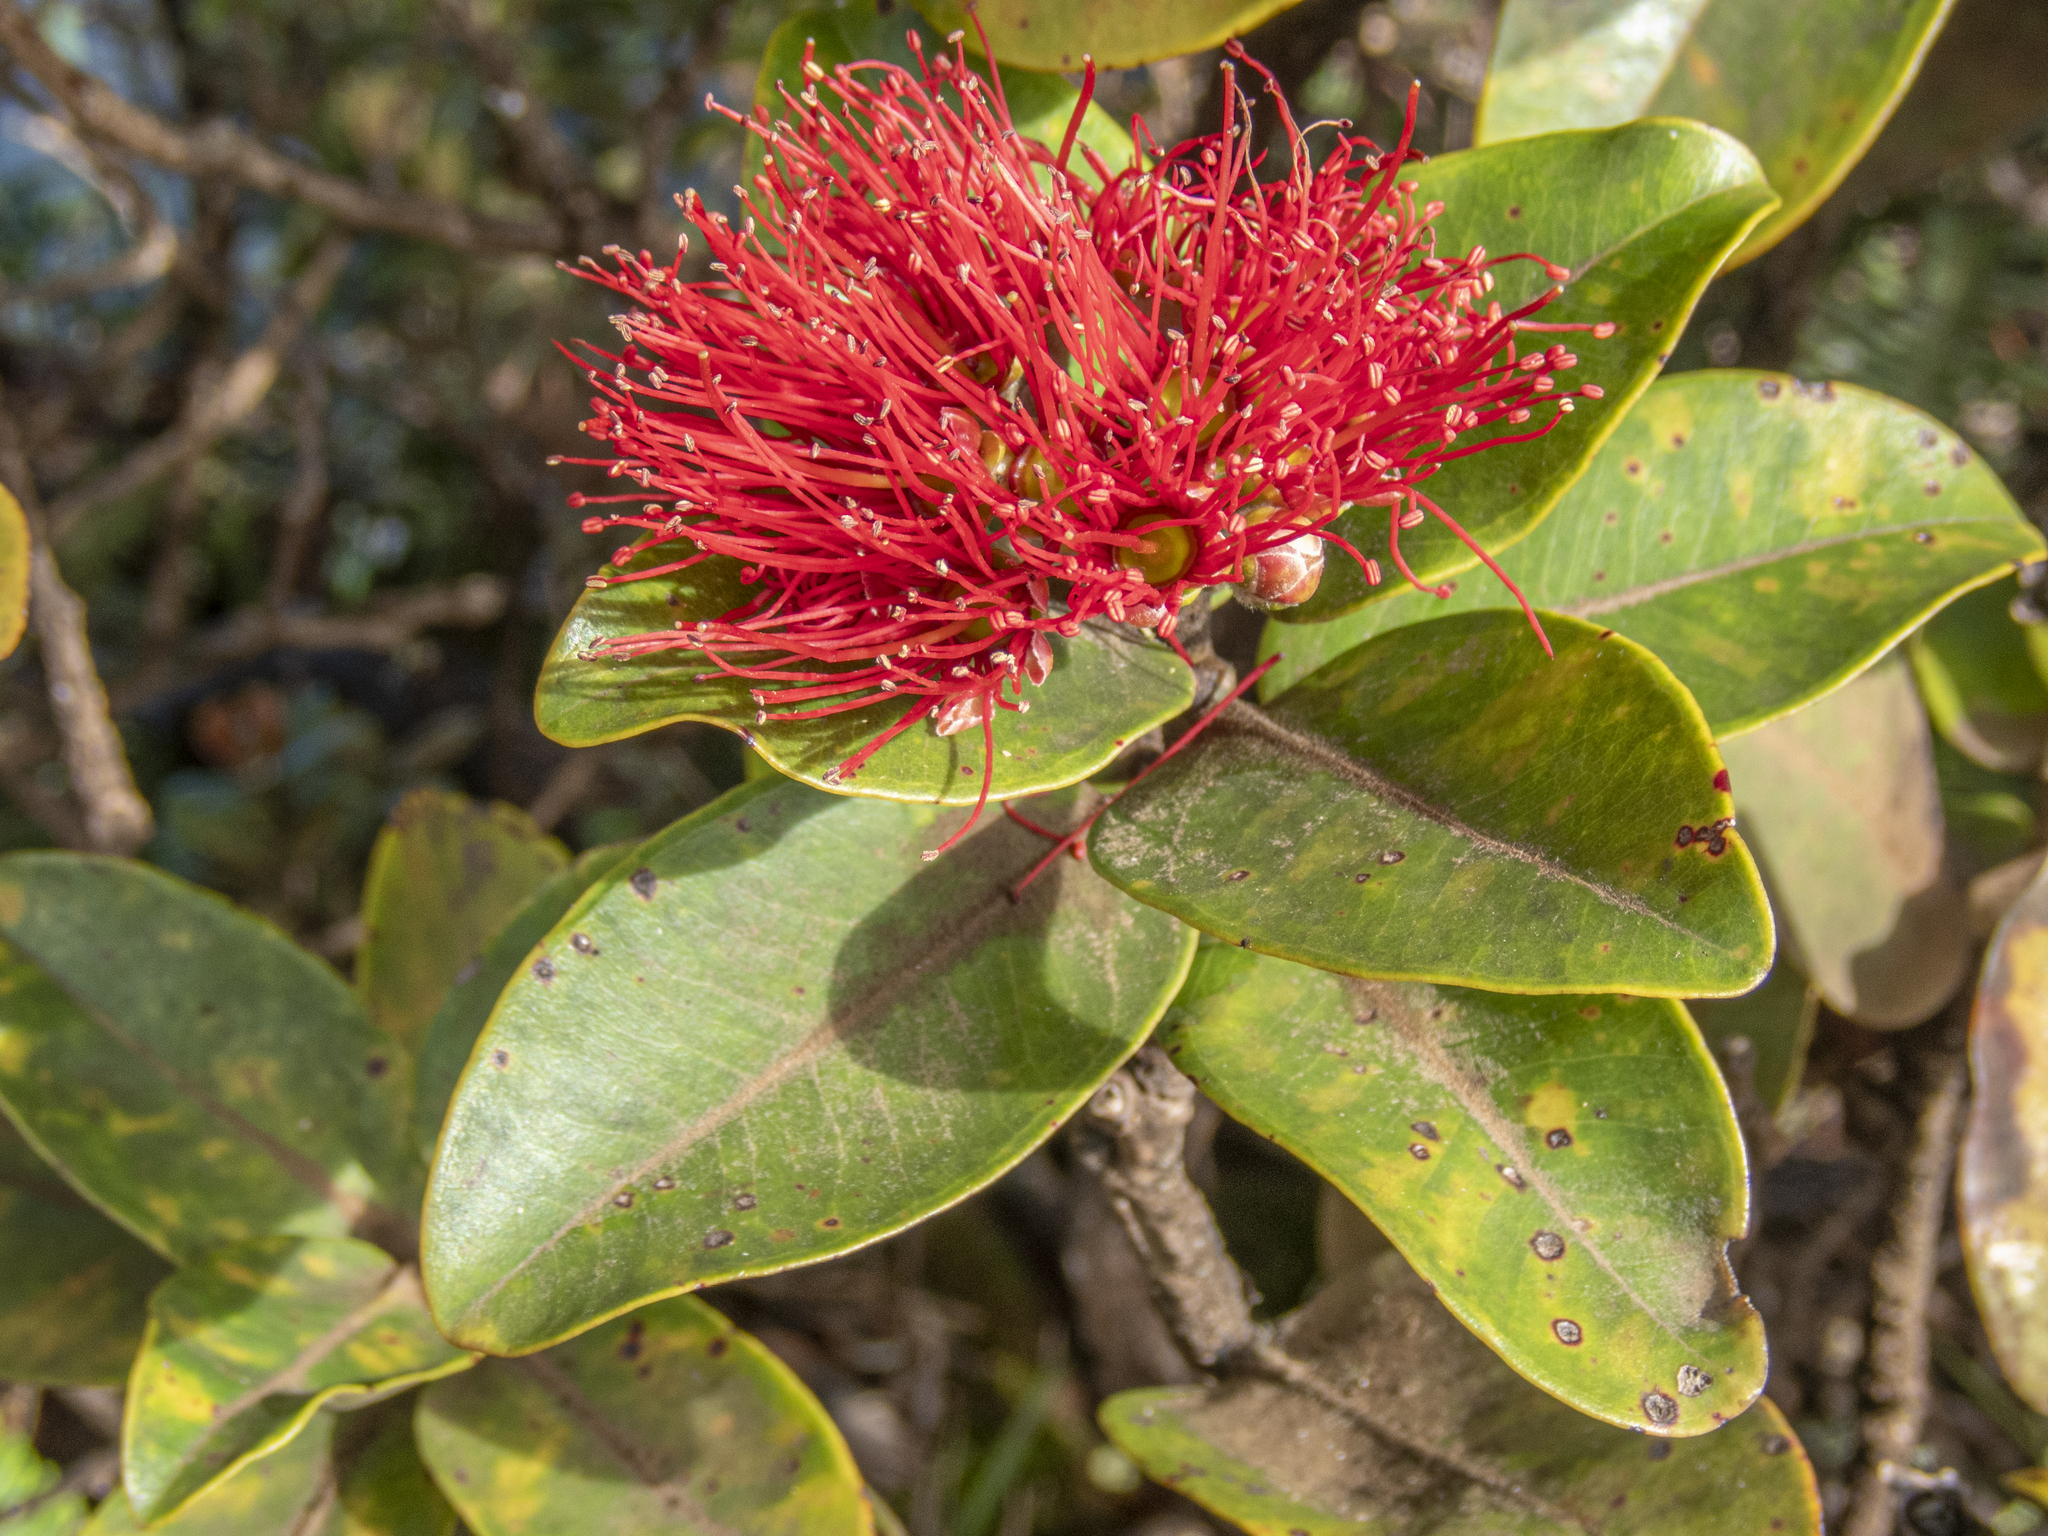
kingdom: Plantae
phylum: Tracheophyta
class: Magnoliopsida
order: Myrtales
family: Myrtaceae
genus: Metrosideros
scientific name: Metrosideros polymorpha
